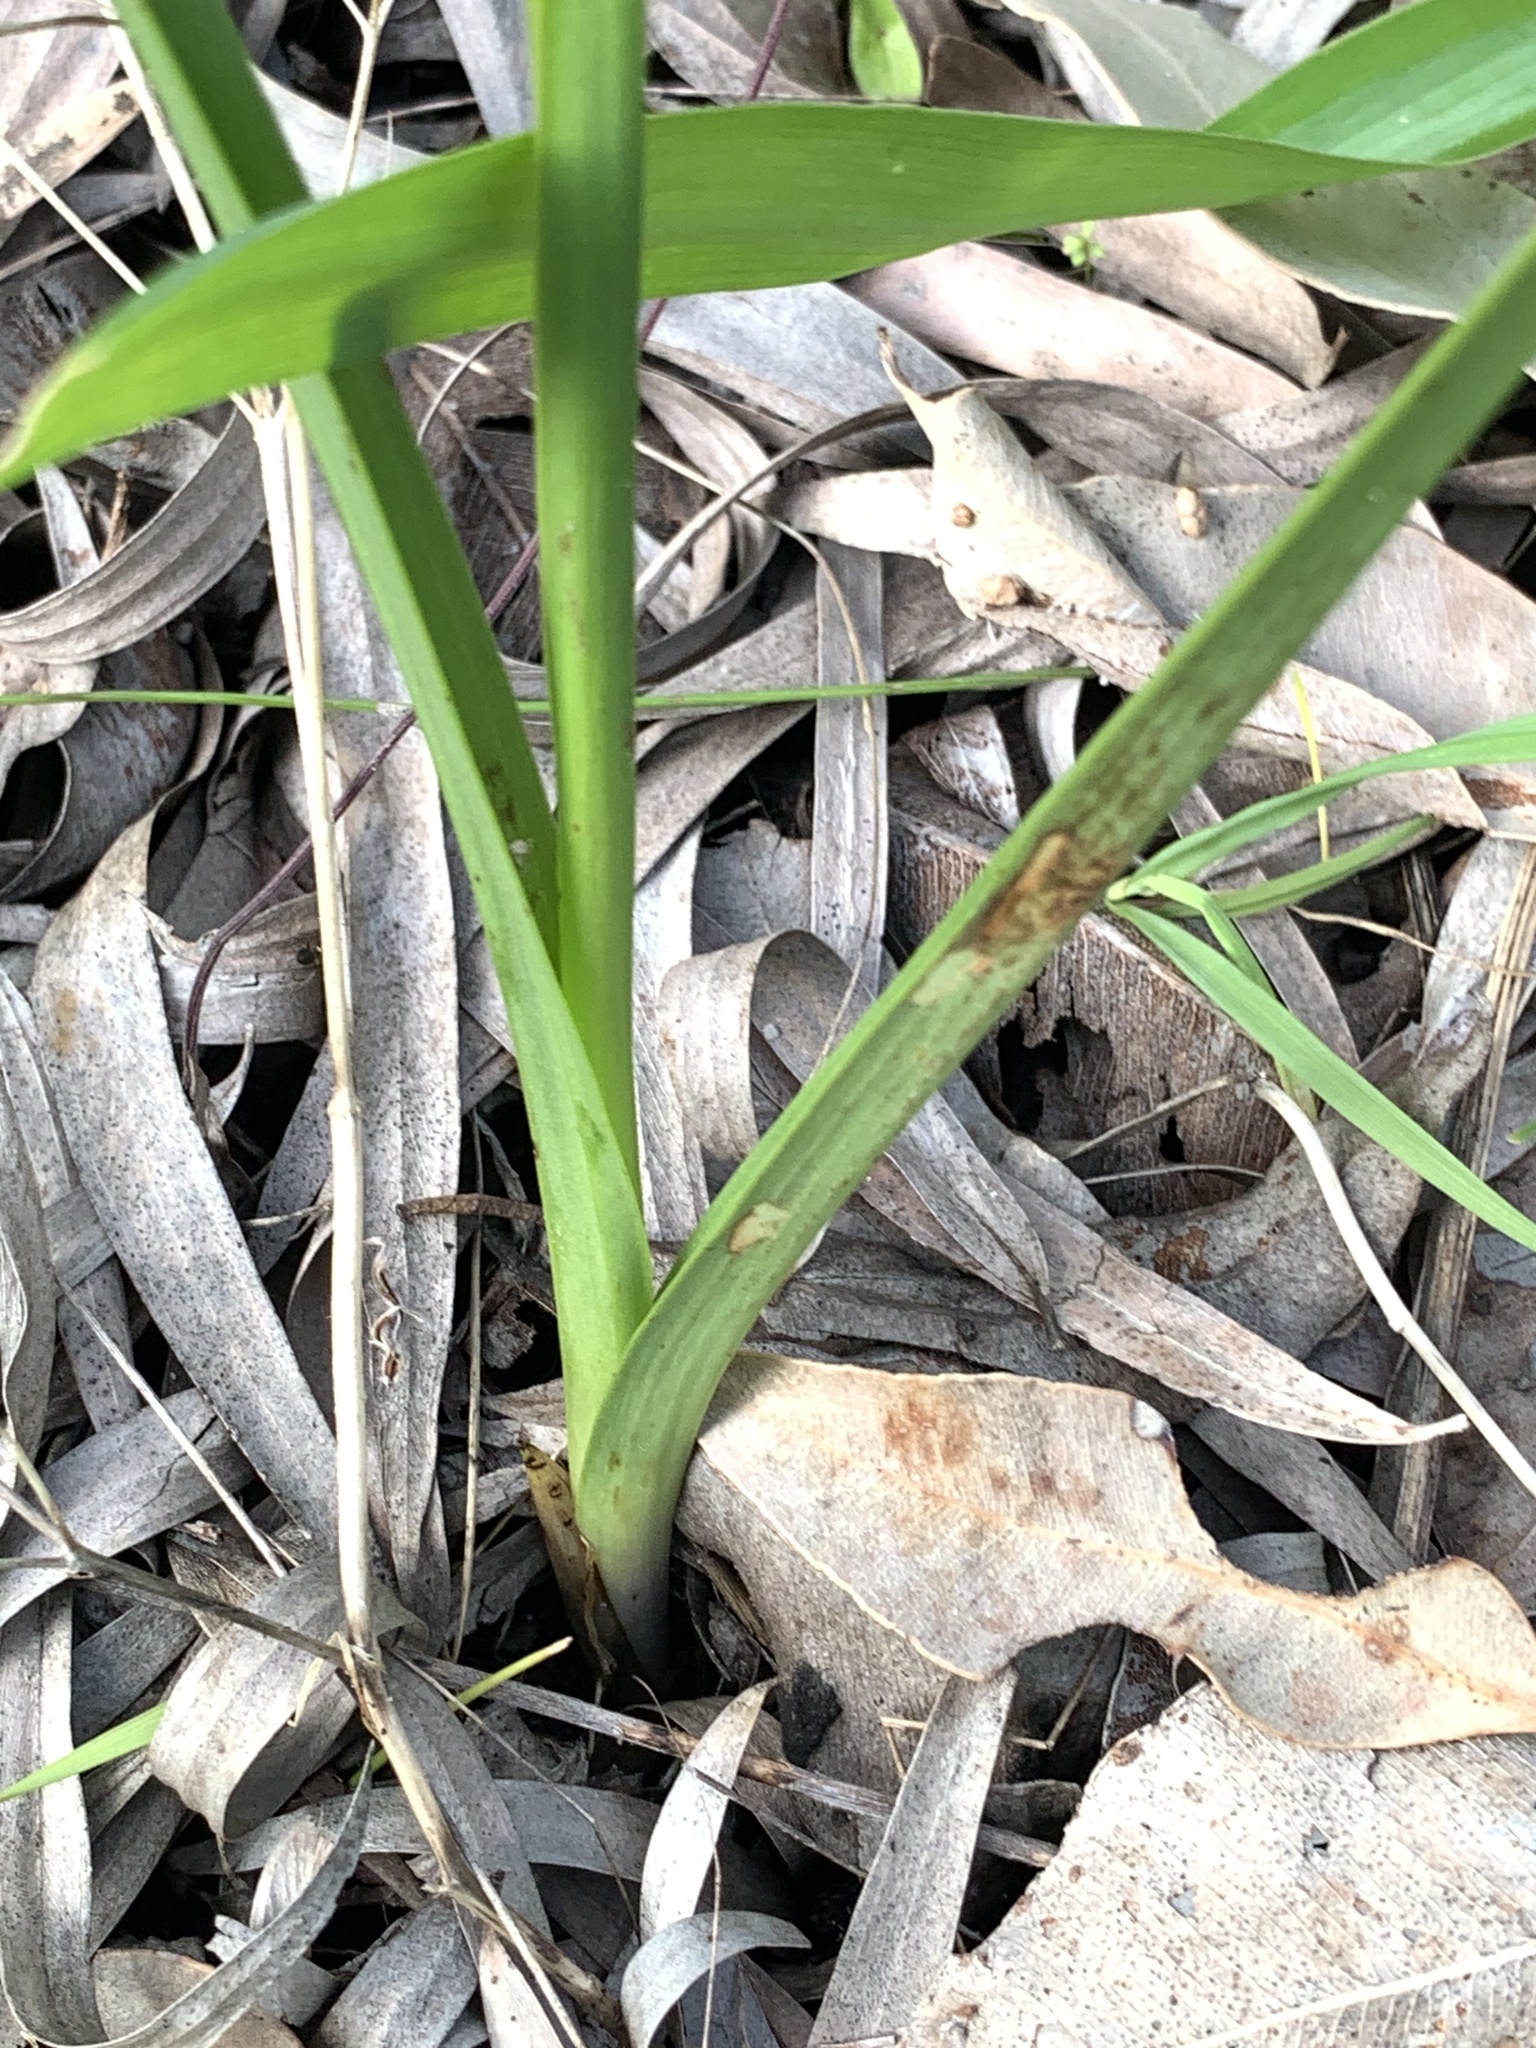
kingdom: Plantae
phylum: Tracheophyta
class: Liliopsida
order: Asparagales
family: Orchidaceae
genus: Diuris
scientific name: Diuris jonesii
